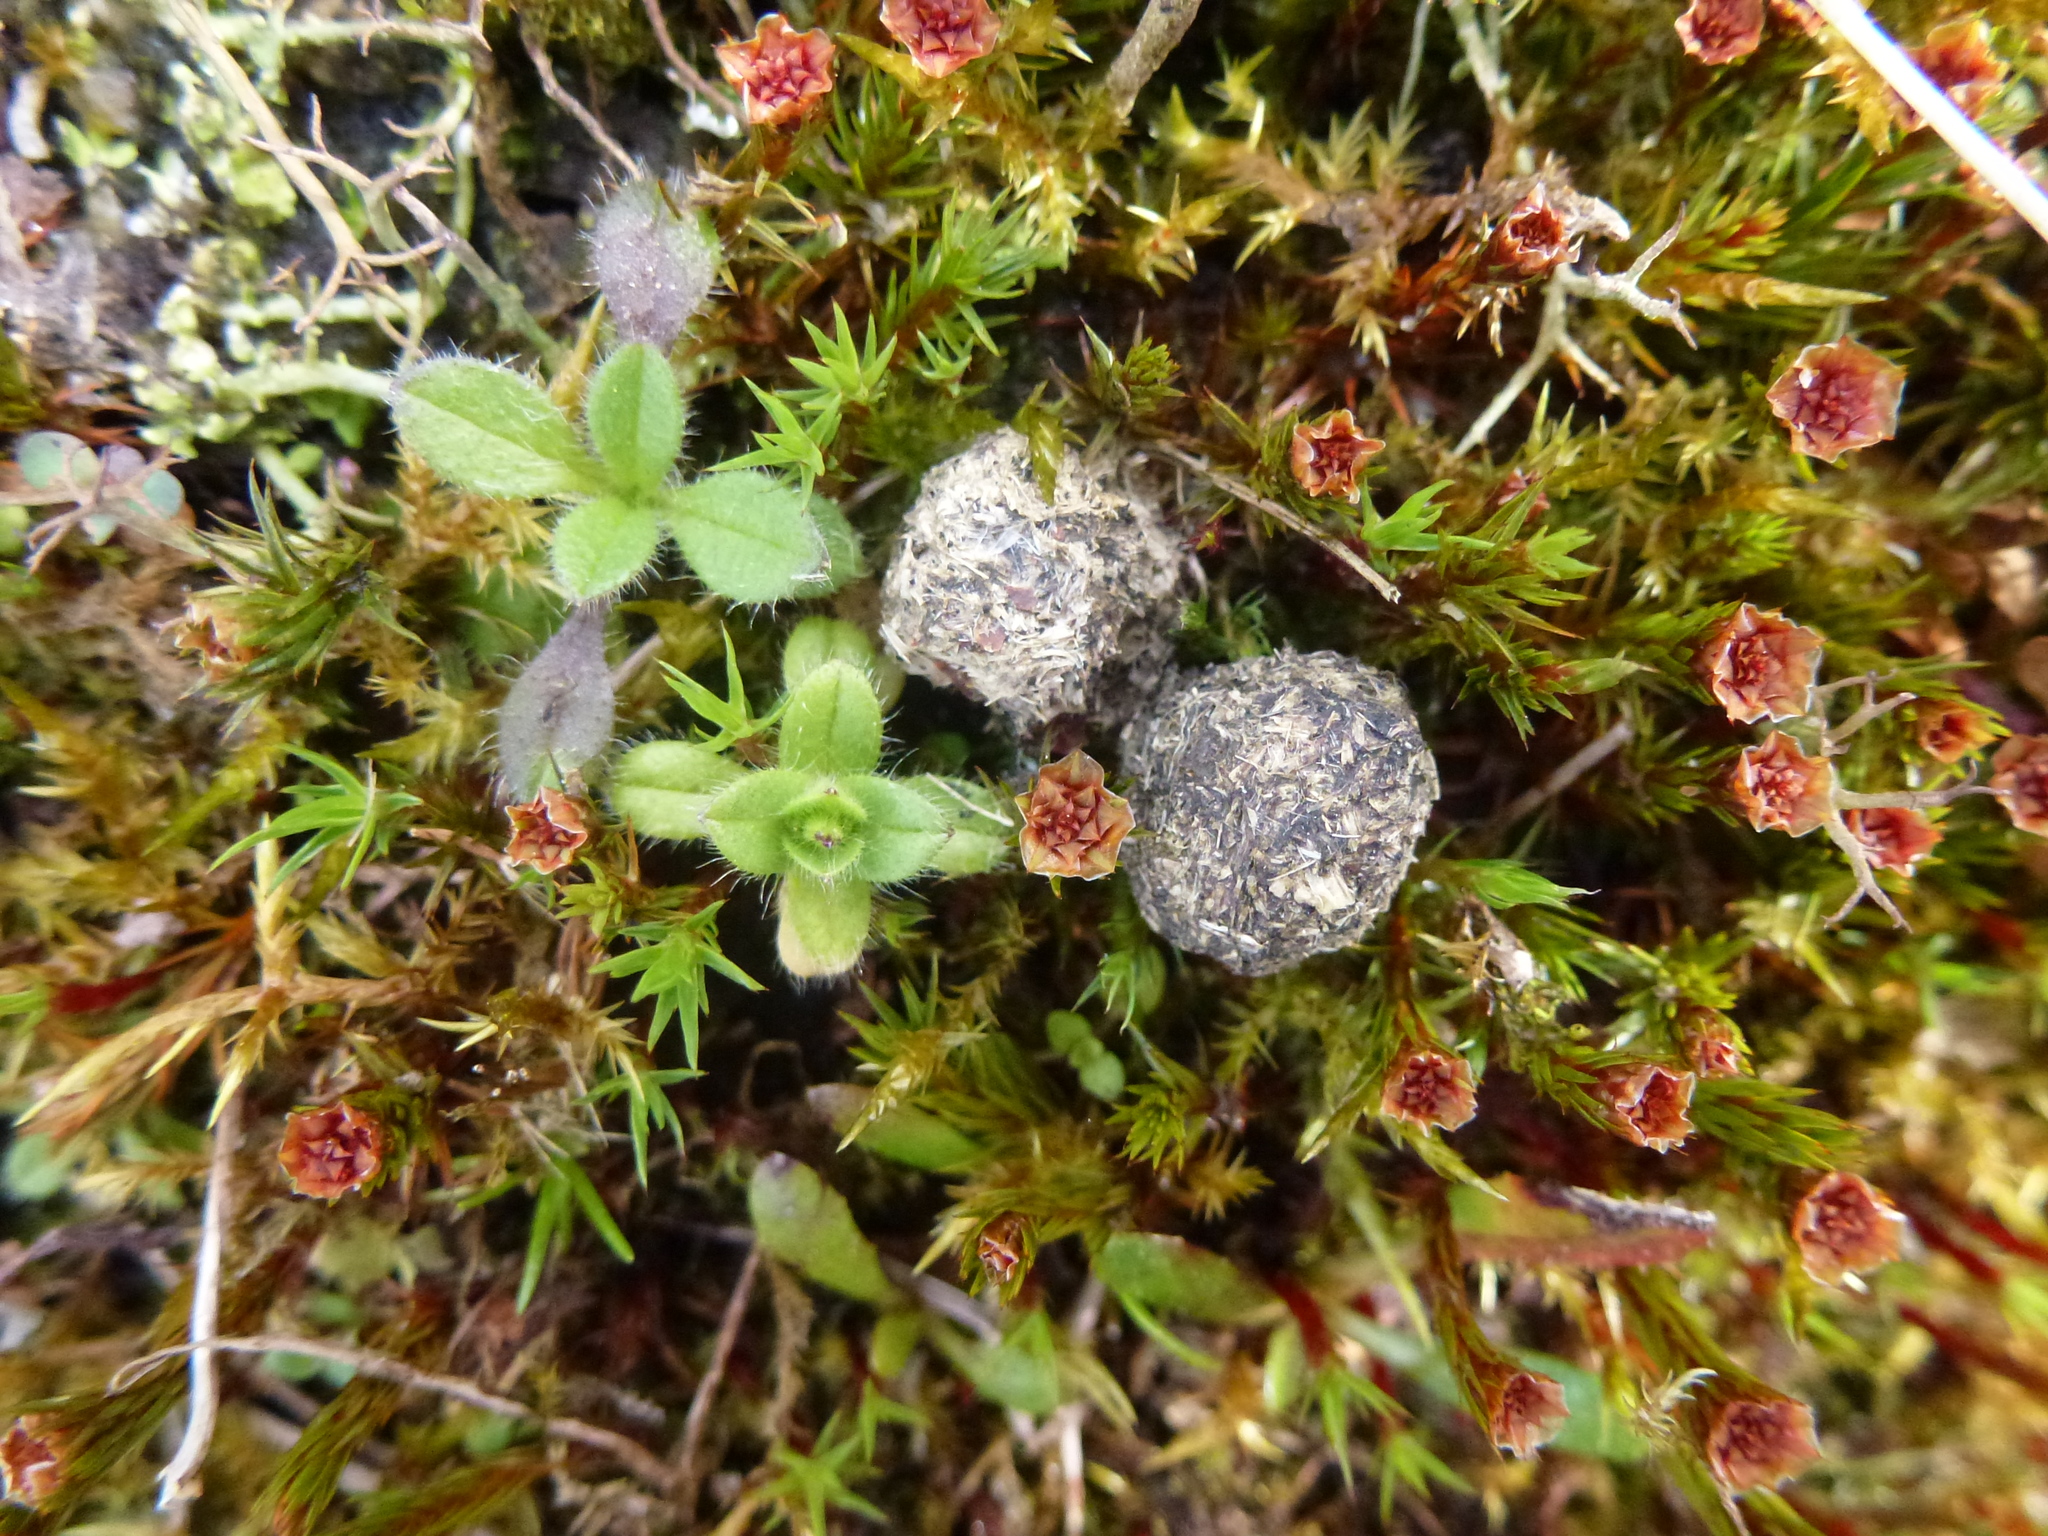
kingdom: Animalia
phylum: Chordata
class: Mammalia
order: Lagomorpha
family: Leporidae
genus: Oryctolagus
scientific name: Oryctolagus cuniculus
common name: European rabbit
